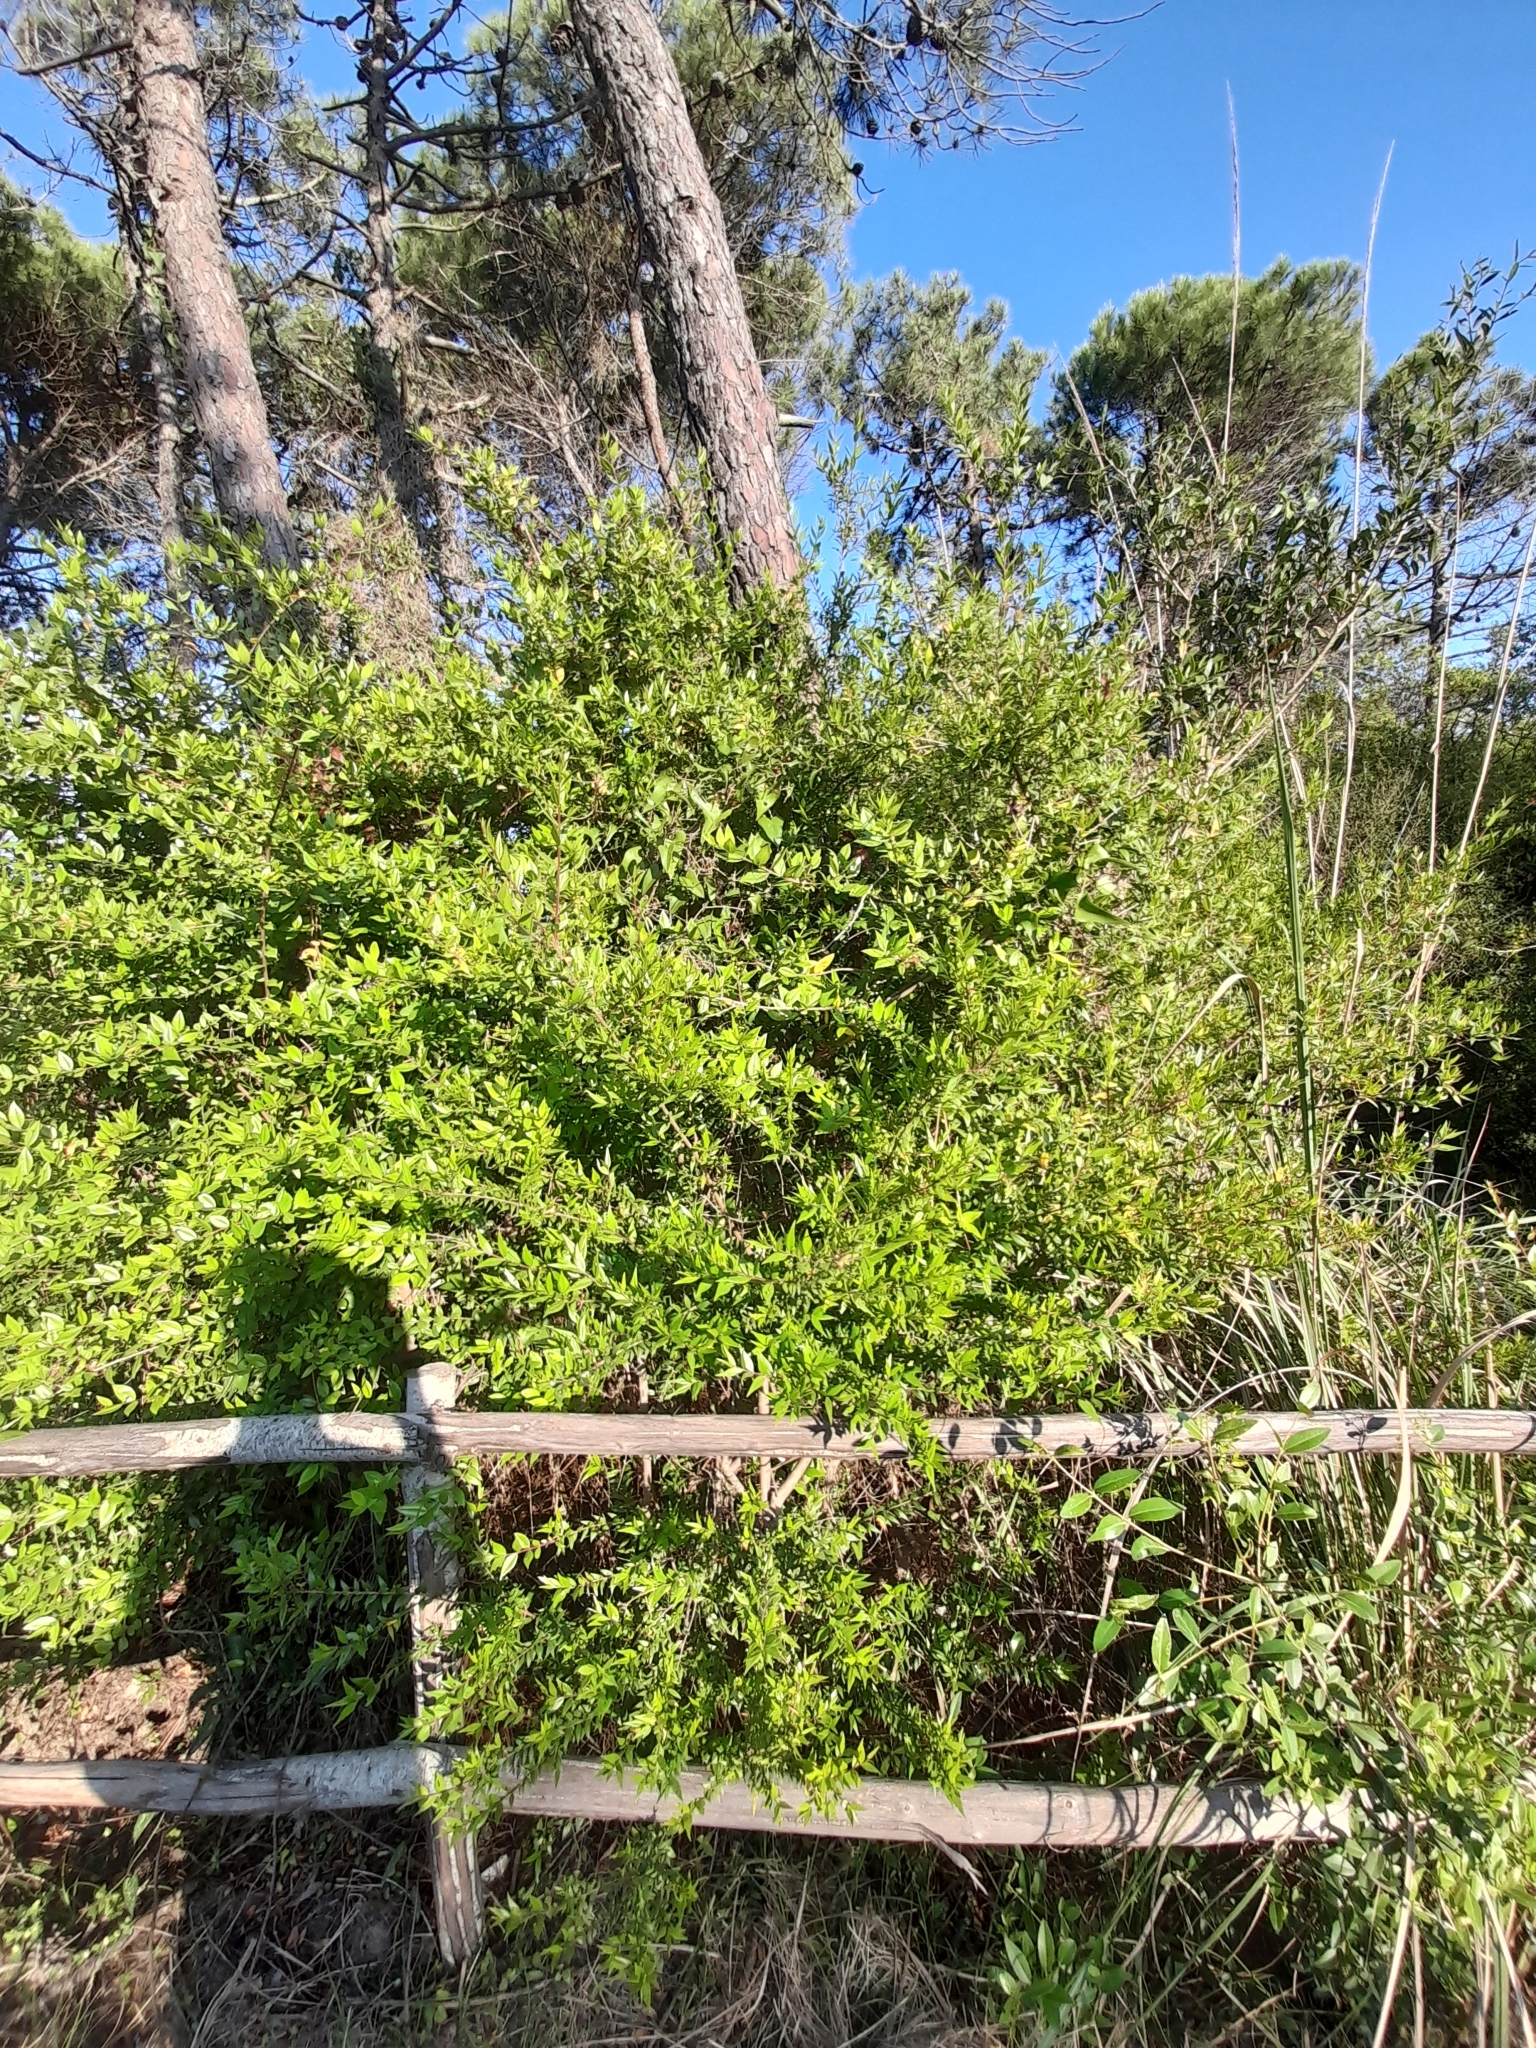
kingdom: Plantae
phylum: Tracheophyta
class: Magnoliopsida
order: Myrtales
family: Myrtaceae
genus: Myrtus
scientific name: Myrtus communis
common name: Myrtle
